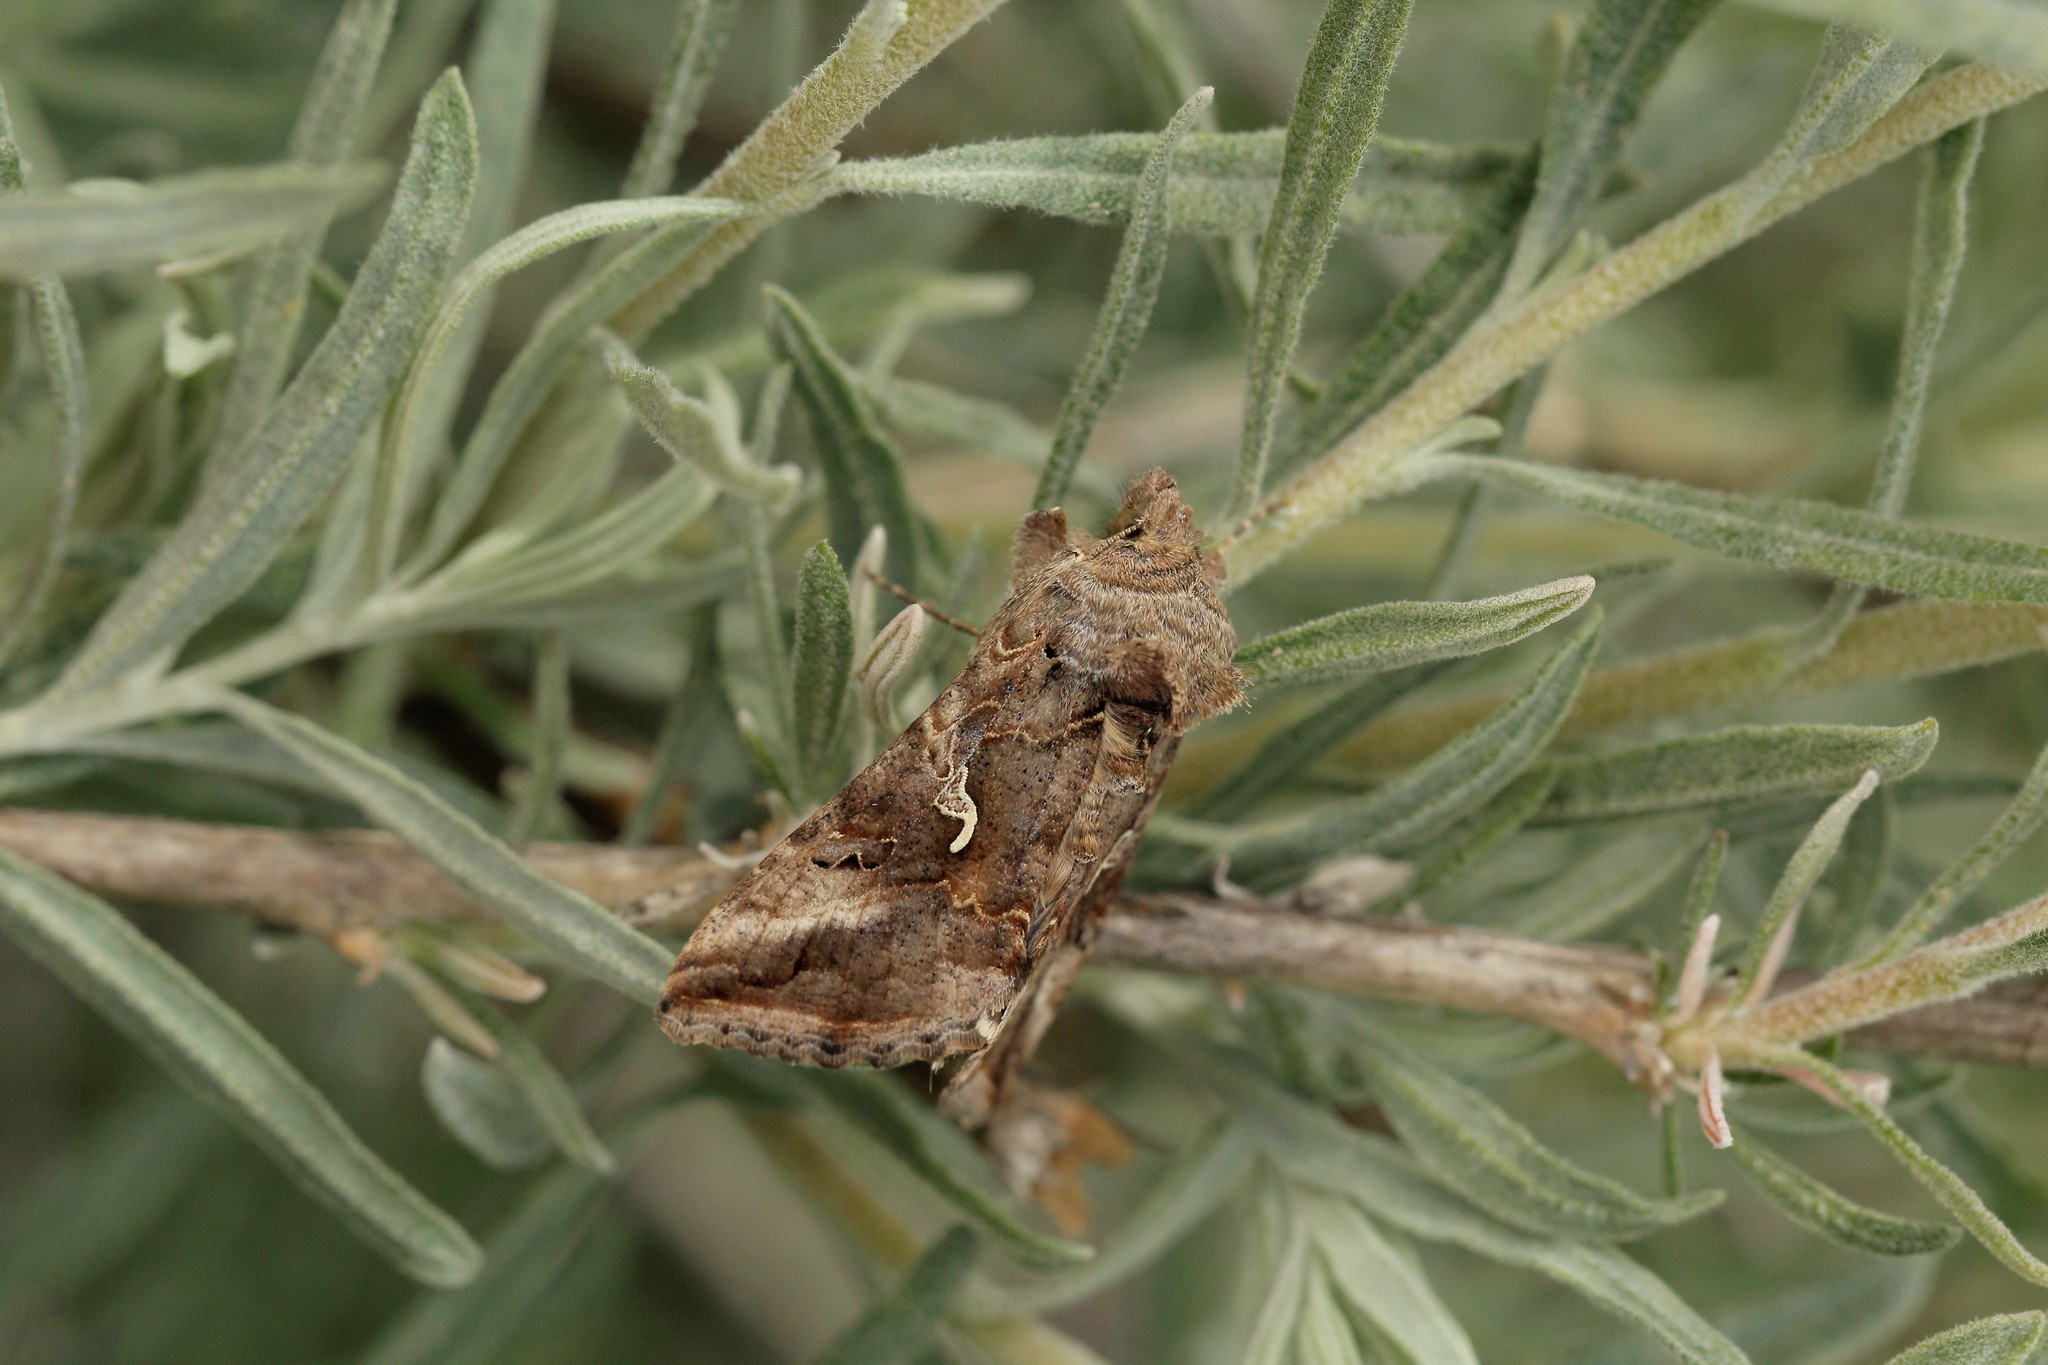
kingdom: Animalia
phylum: Arthropoda
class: Insecta
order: Lepidoptera
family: Noctuidae
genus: Autographa
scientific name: Autographa gamma
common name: Silver y
